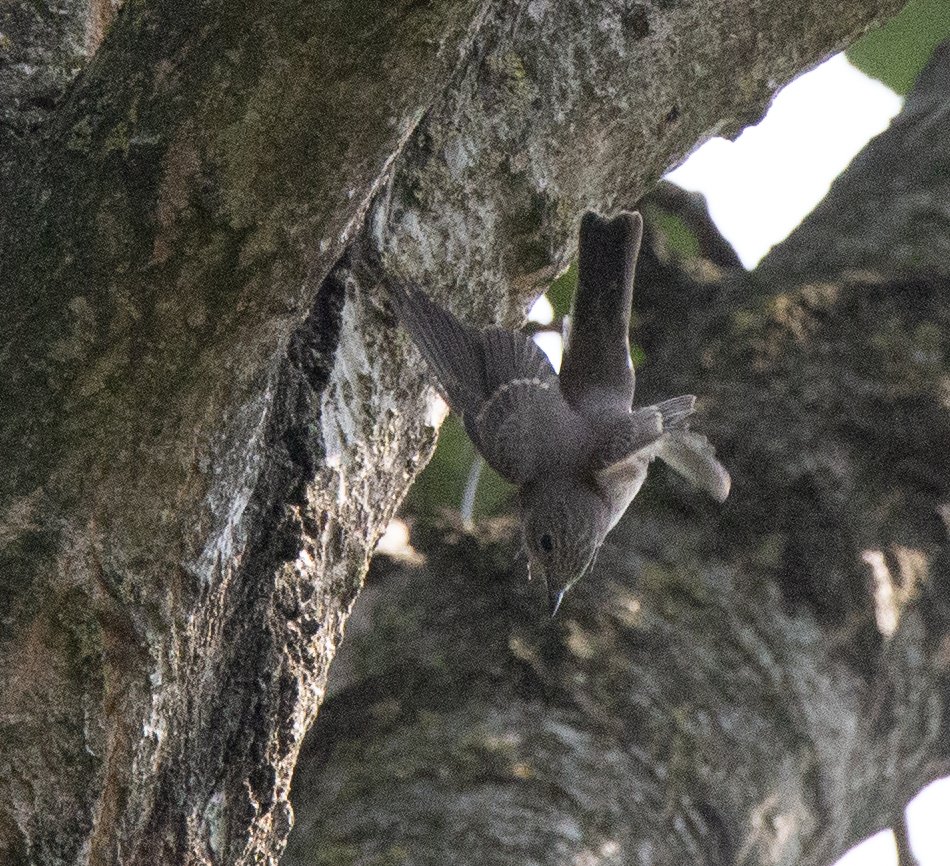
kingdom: Animalia
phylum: Chordata
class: Aves
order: Passeriformes
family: Muscicapidae
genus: Muscicapa
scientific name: Muscicapa striata
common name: Spotted flycatcher
